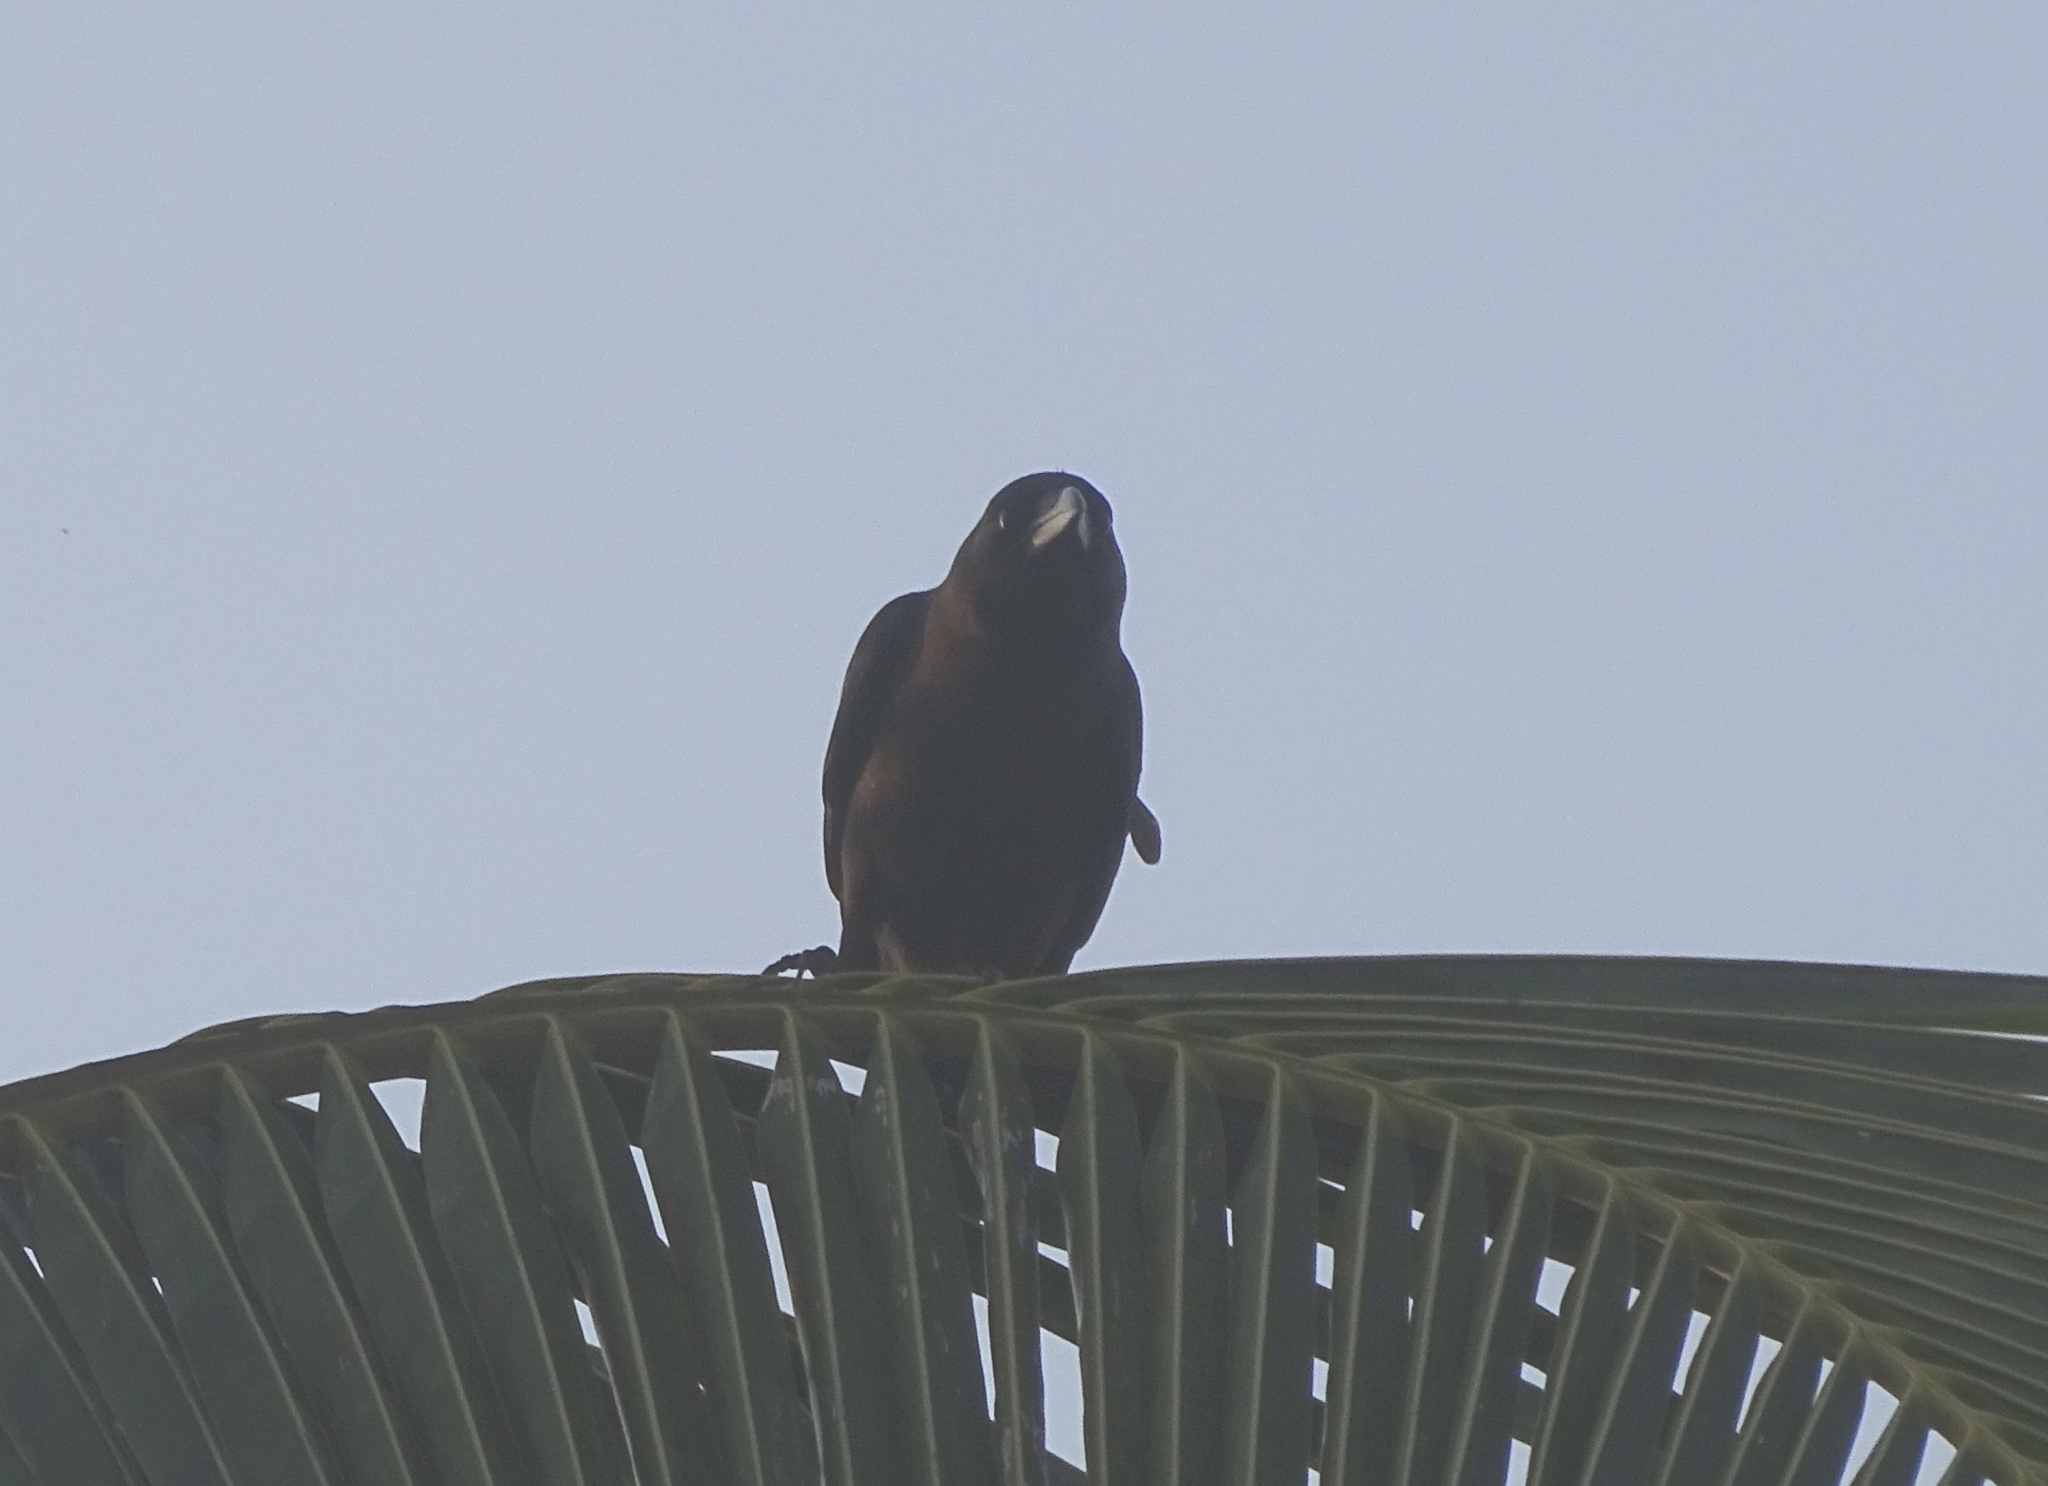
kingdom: Animalia
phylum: Chordata
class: Aves
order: Passeriformes
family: Corvidae
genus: Corvus
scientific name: Corvus splendens
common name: House crow
